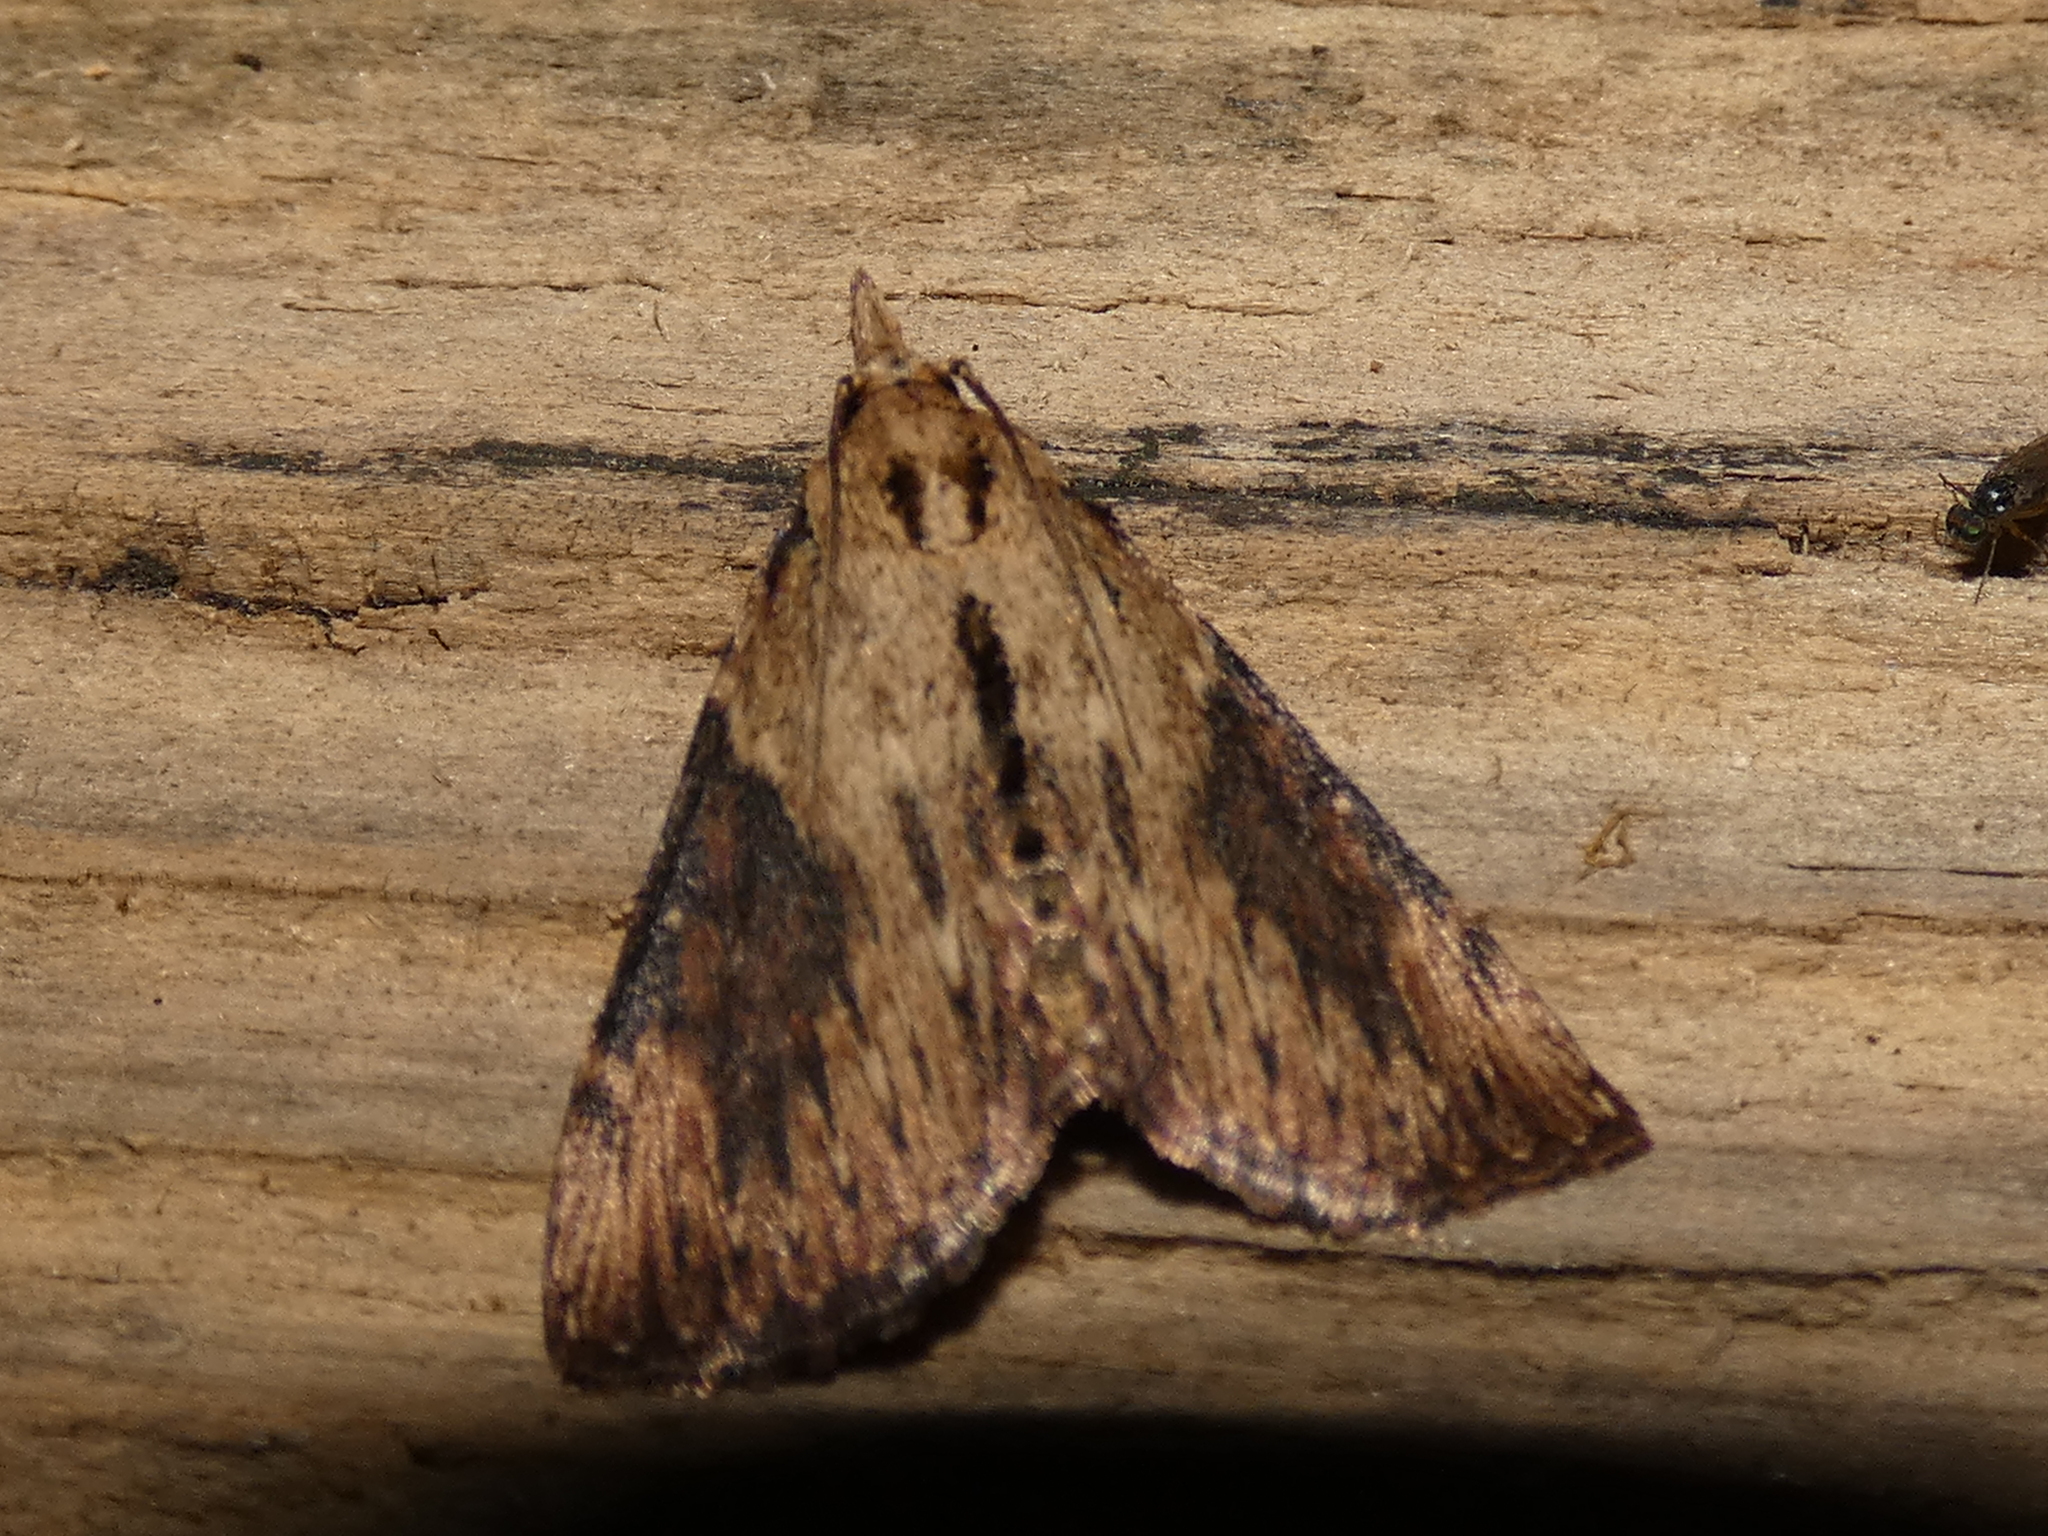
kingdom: Animalia
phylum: Arthropoda
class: Insecta
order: Lepidoptera
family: Pyralidae
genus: Omphalocera
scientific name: Omphalocera cariosa
